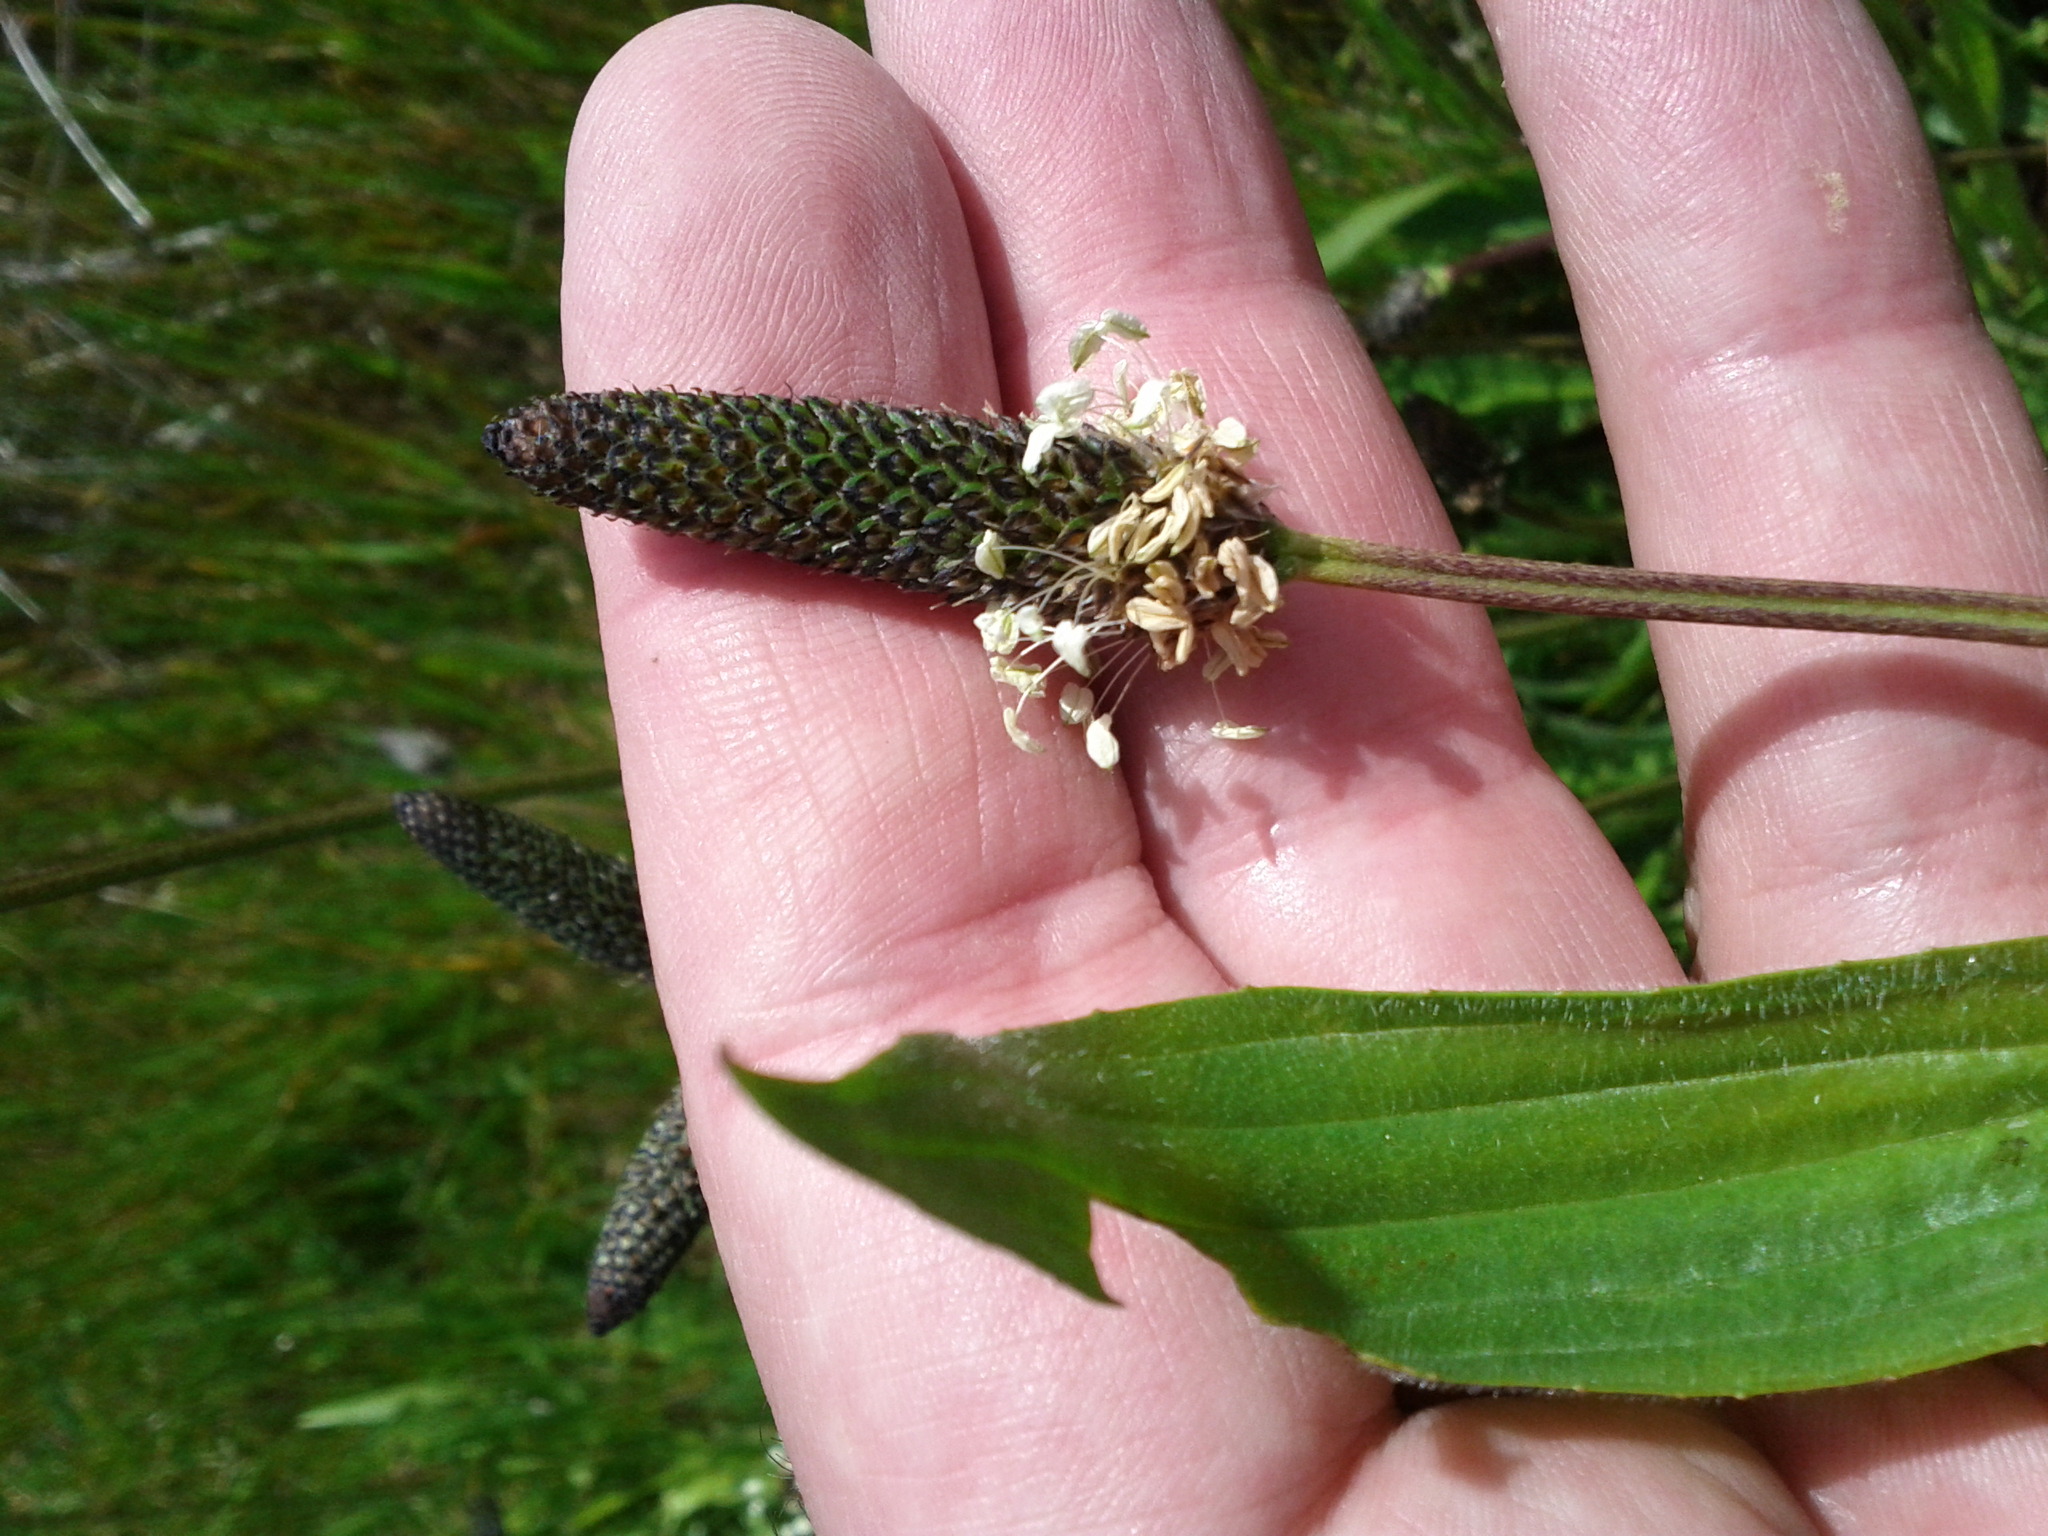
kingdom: Plantae
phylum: Tracheophyta
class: Magnoliopsida
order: Lamiales
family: Plantaginaceae
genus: Plantago
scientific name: Plantago lanceolata
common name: Ribwort plantain
